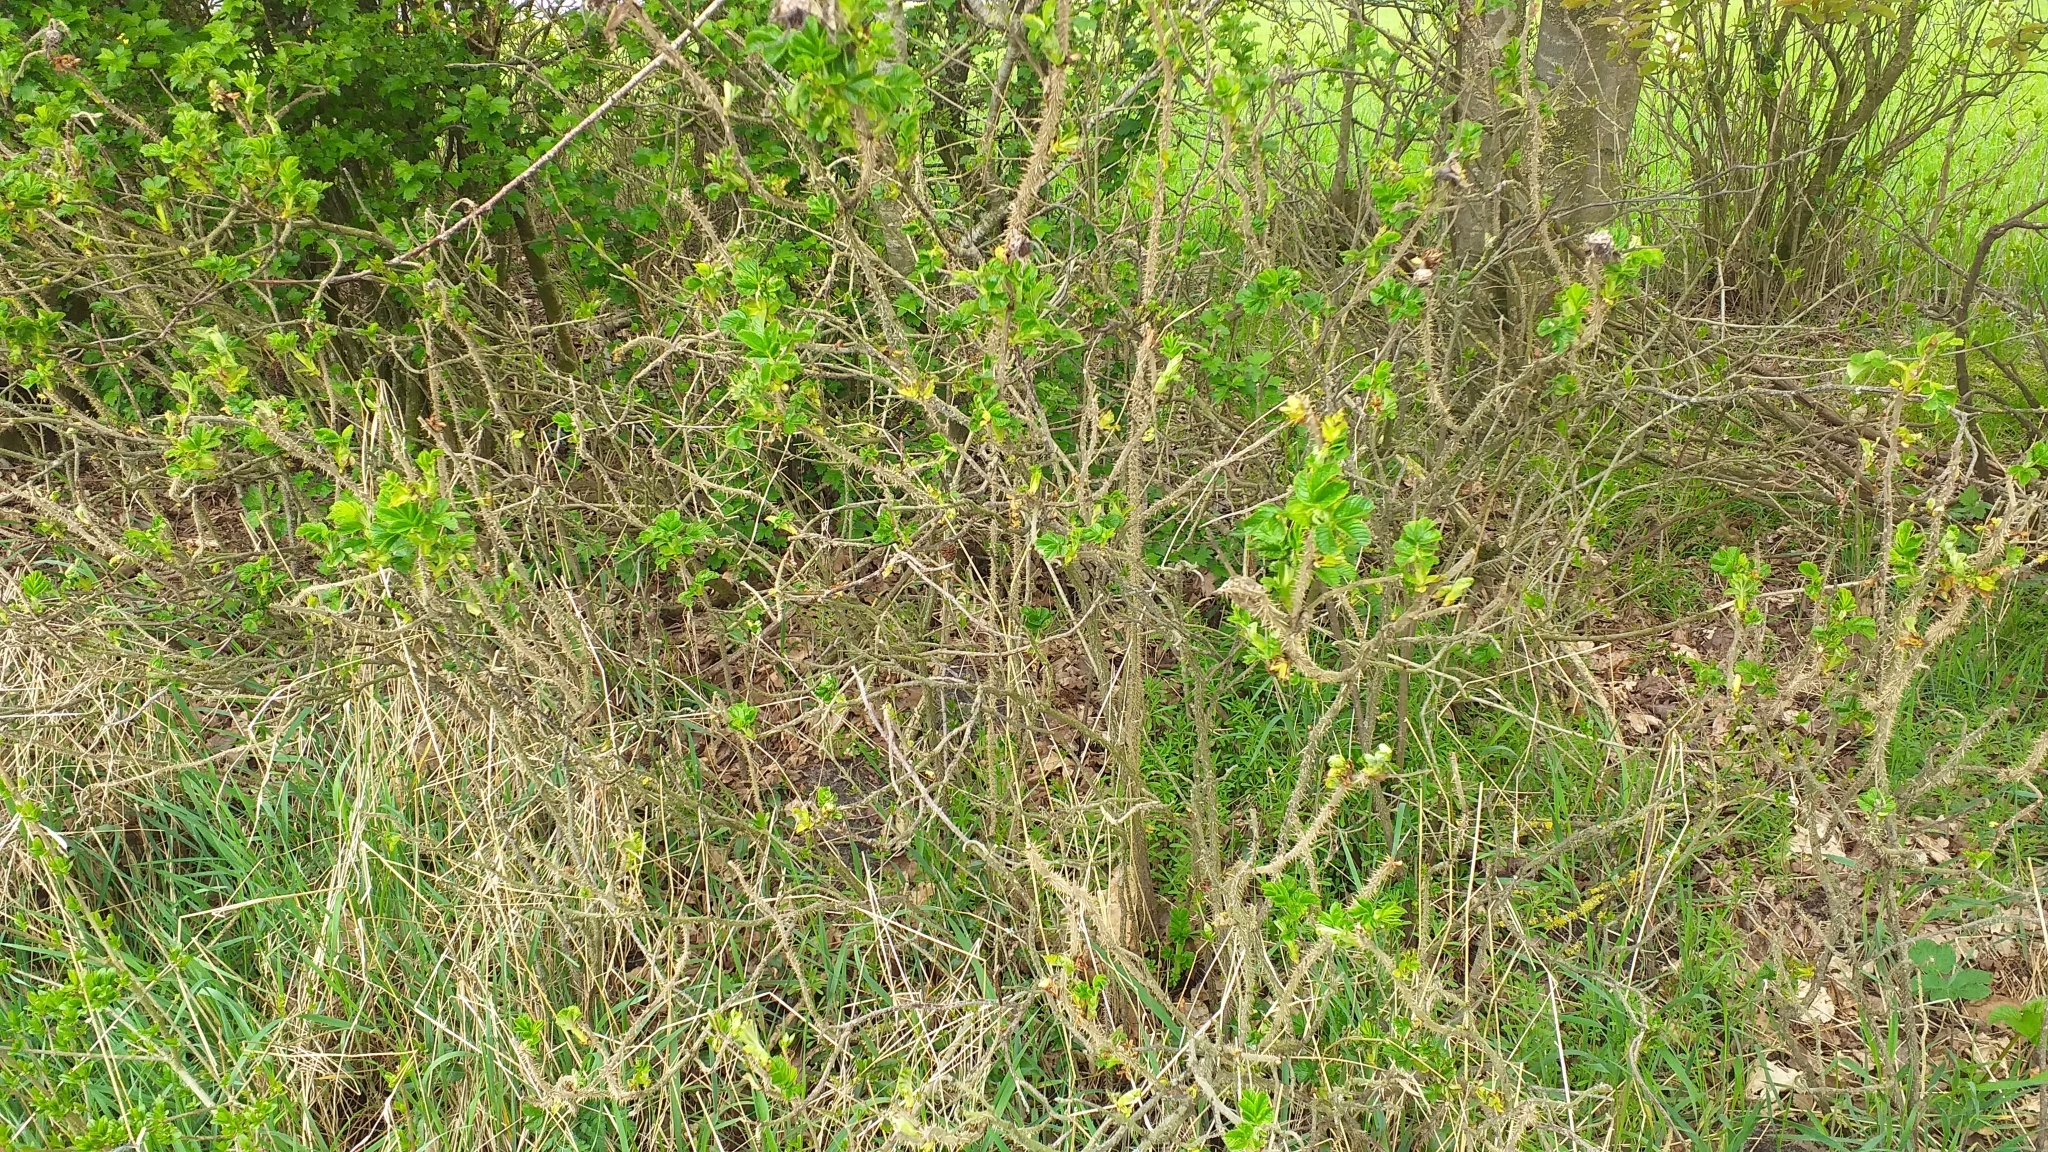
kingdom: Plantae
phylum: Tracheophyta
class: Magnoliopsida
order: Rosales
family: Rosaceae
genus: Rosa
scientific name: Rosa rugosa
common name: Japanese rose
